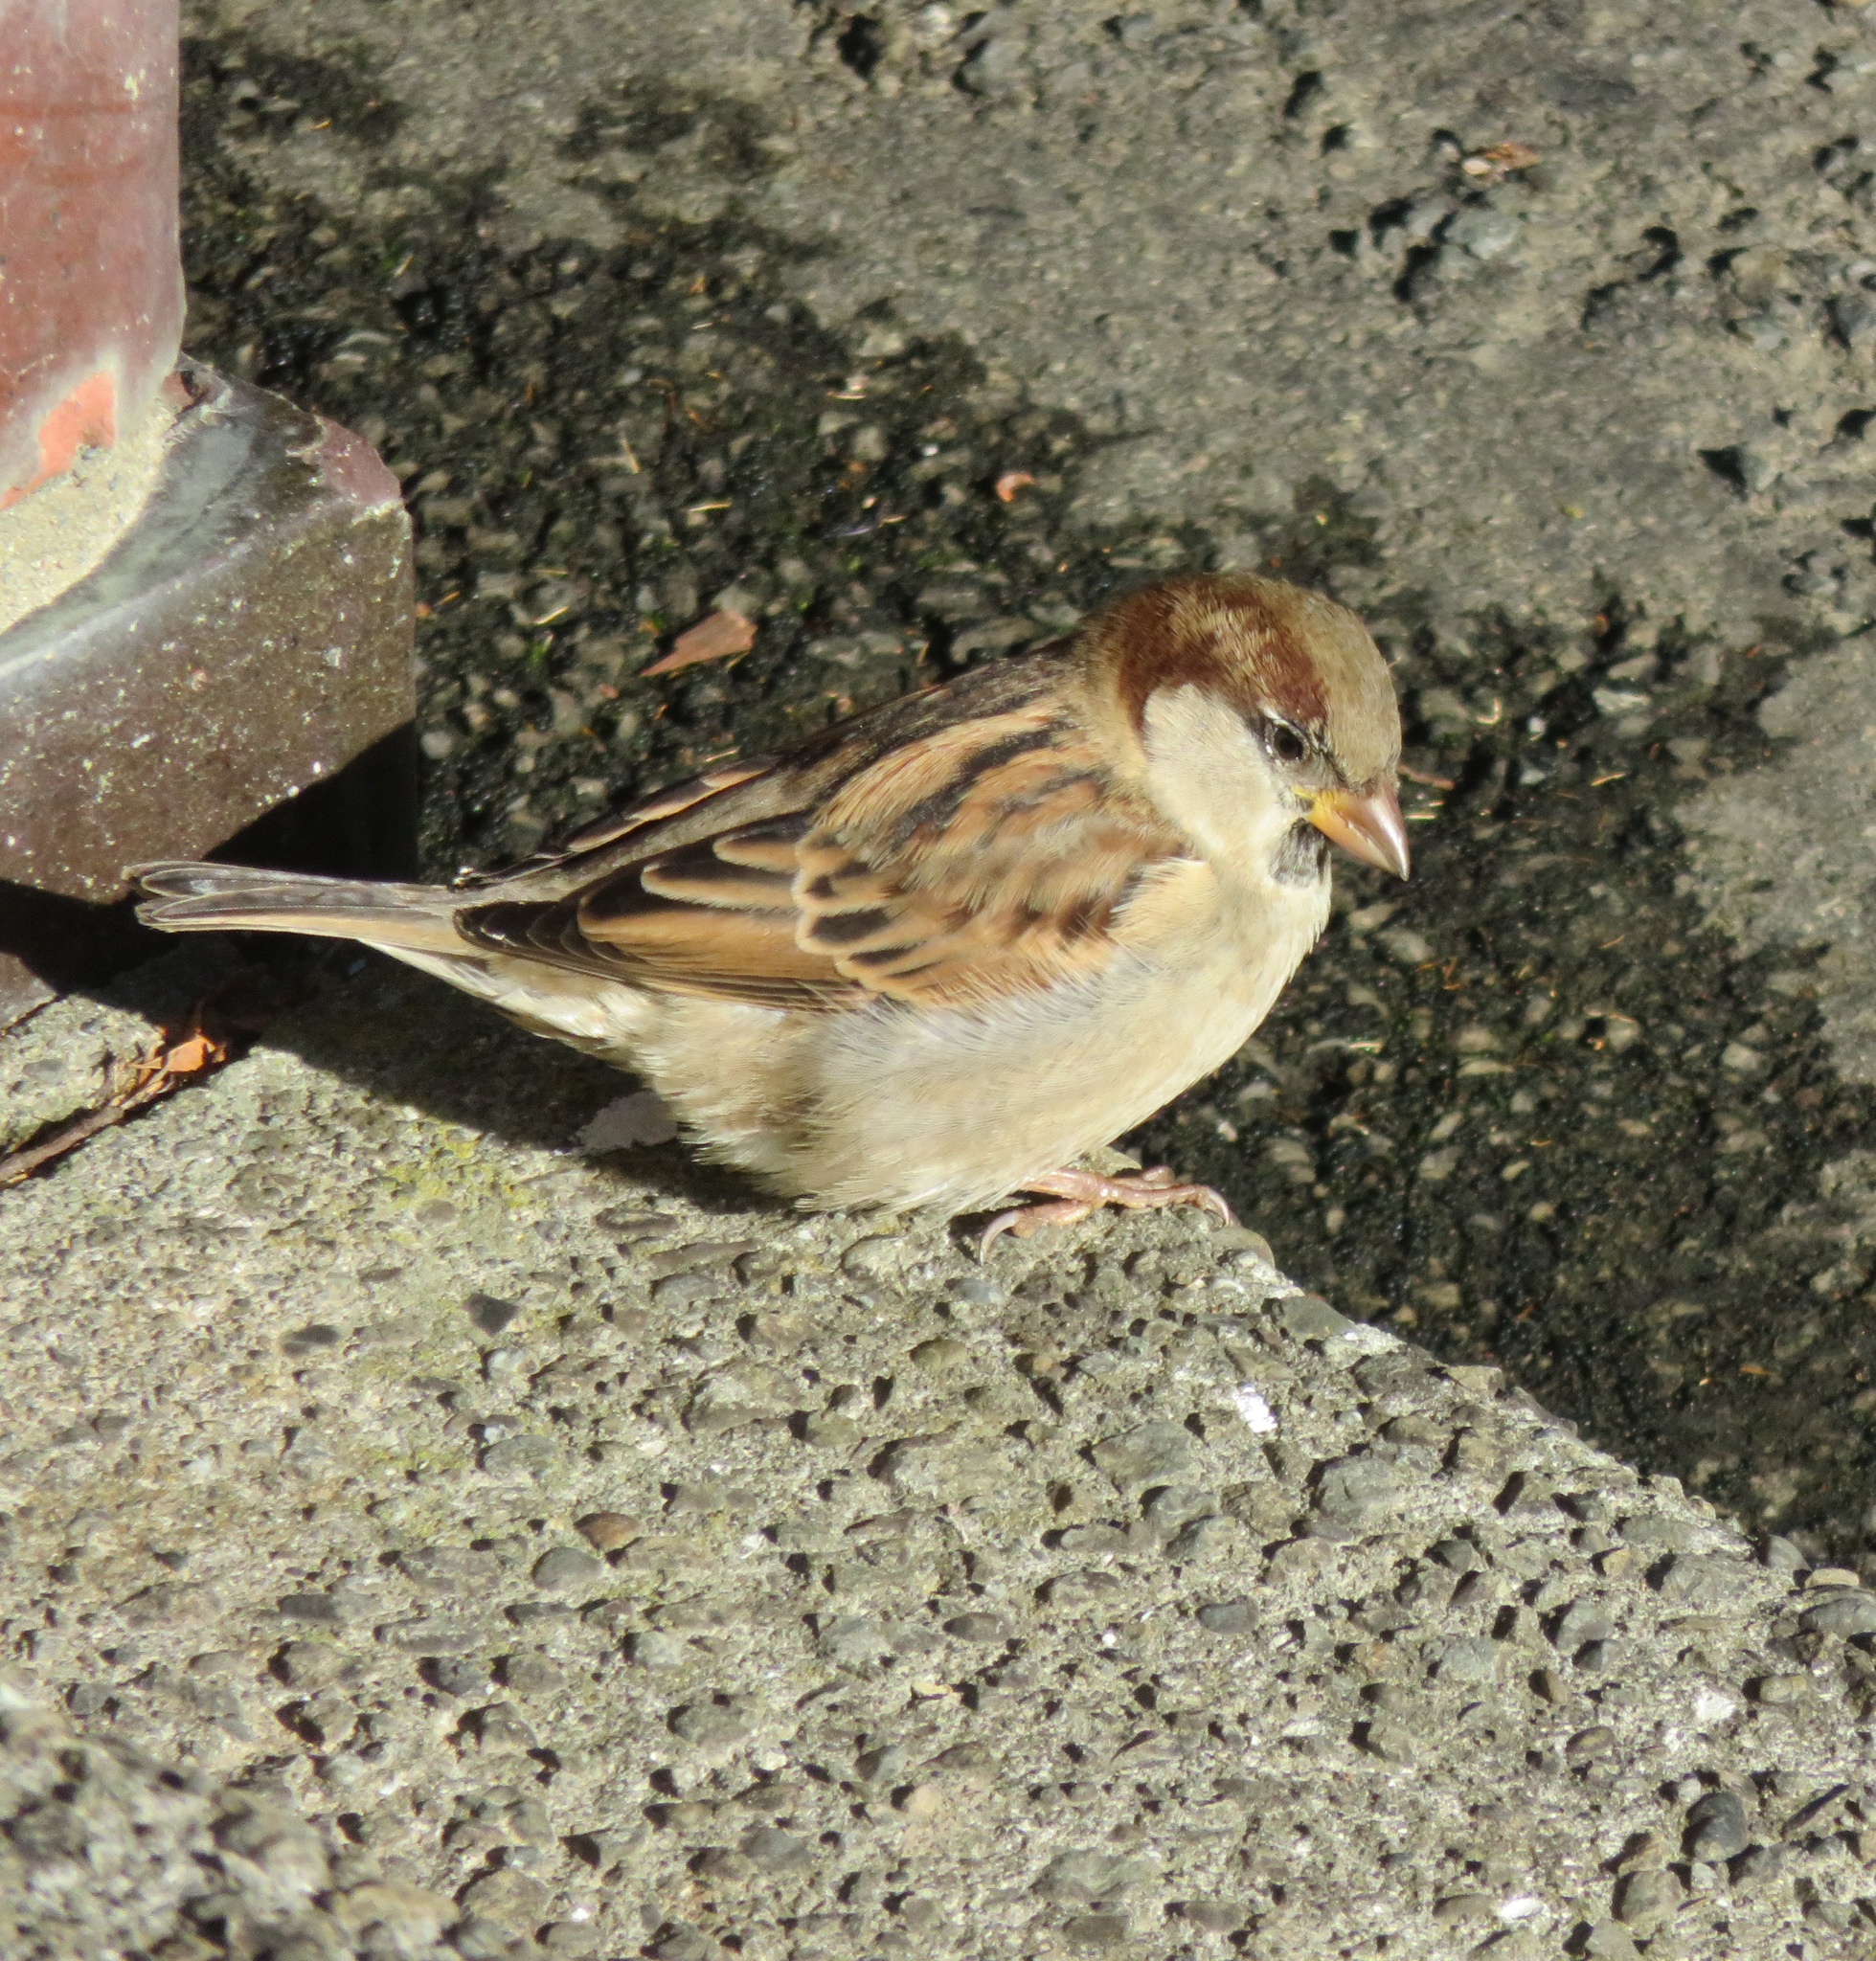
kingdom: Animalia
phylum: Chordata
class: Aves
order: Passeriformes
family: Passeridae
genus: Passer
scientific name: Passer domesticus
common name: House sparrow
